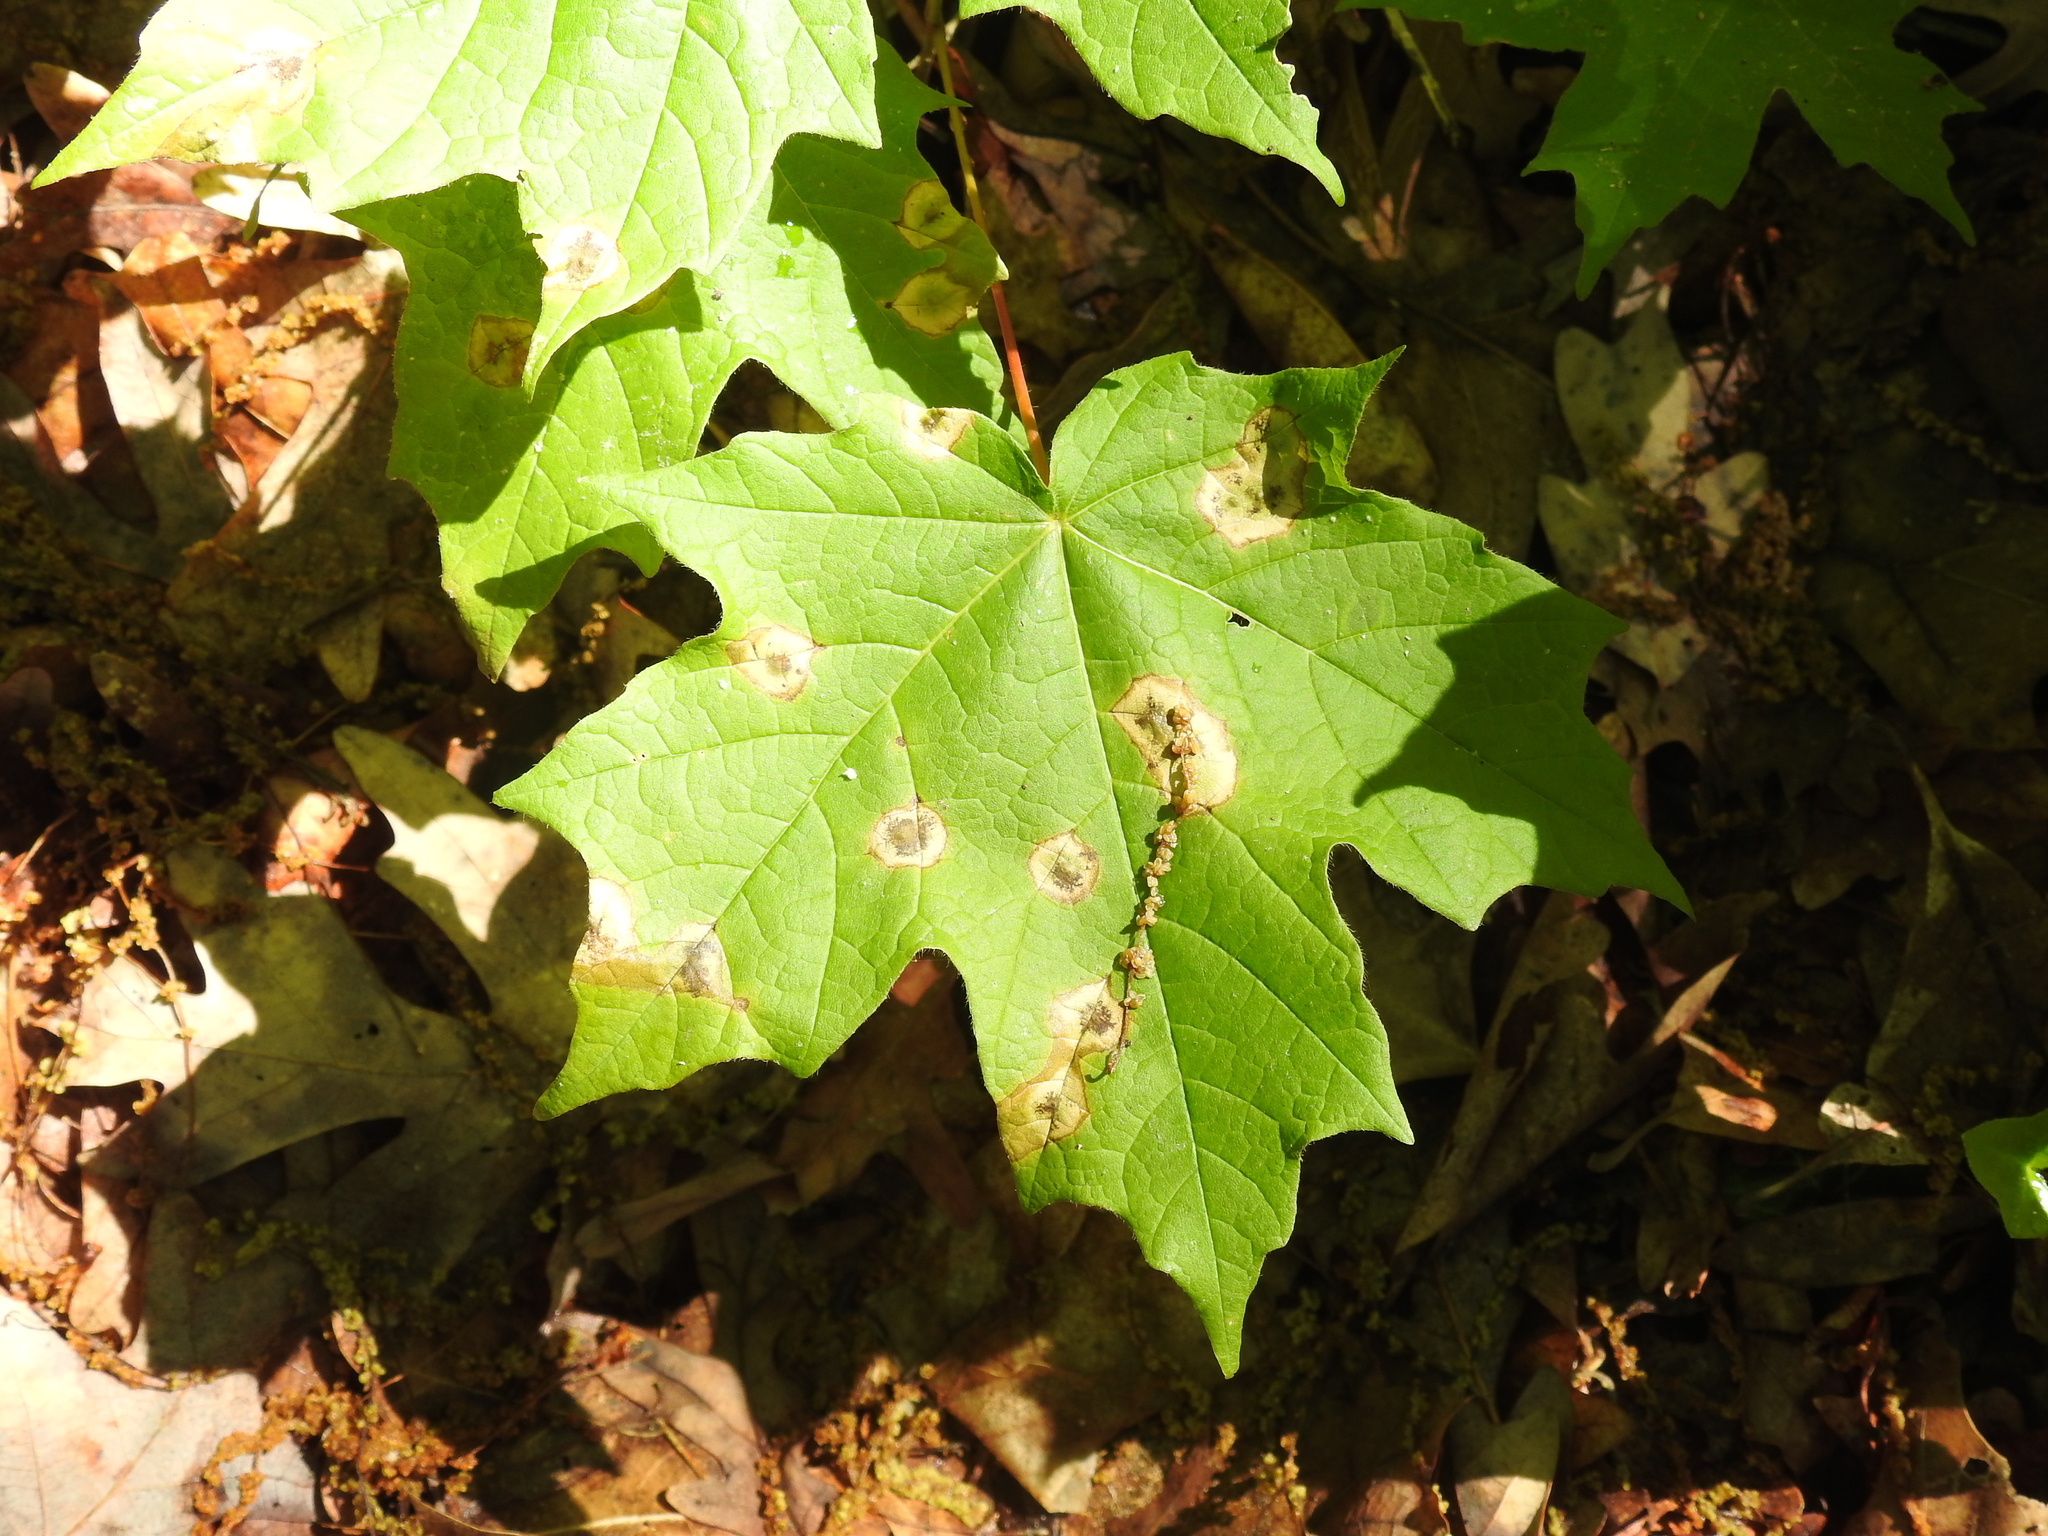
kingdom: Plantae
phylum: Tracheophyta
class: Magnoliopsida
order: Sapindales
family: Sapindaceae
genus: Acer
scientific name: Acer saccharum
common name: Sugar maple
